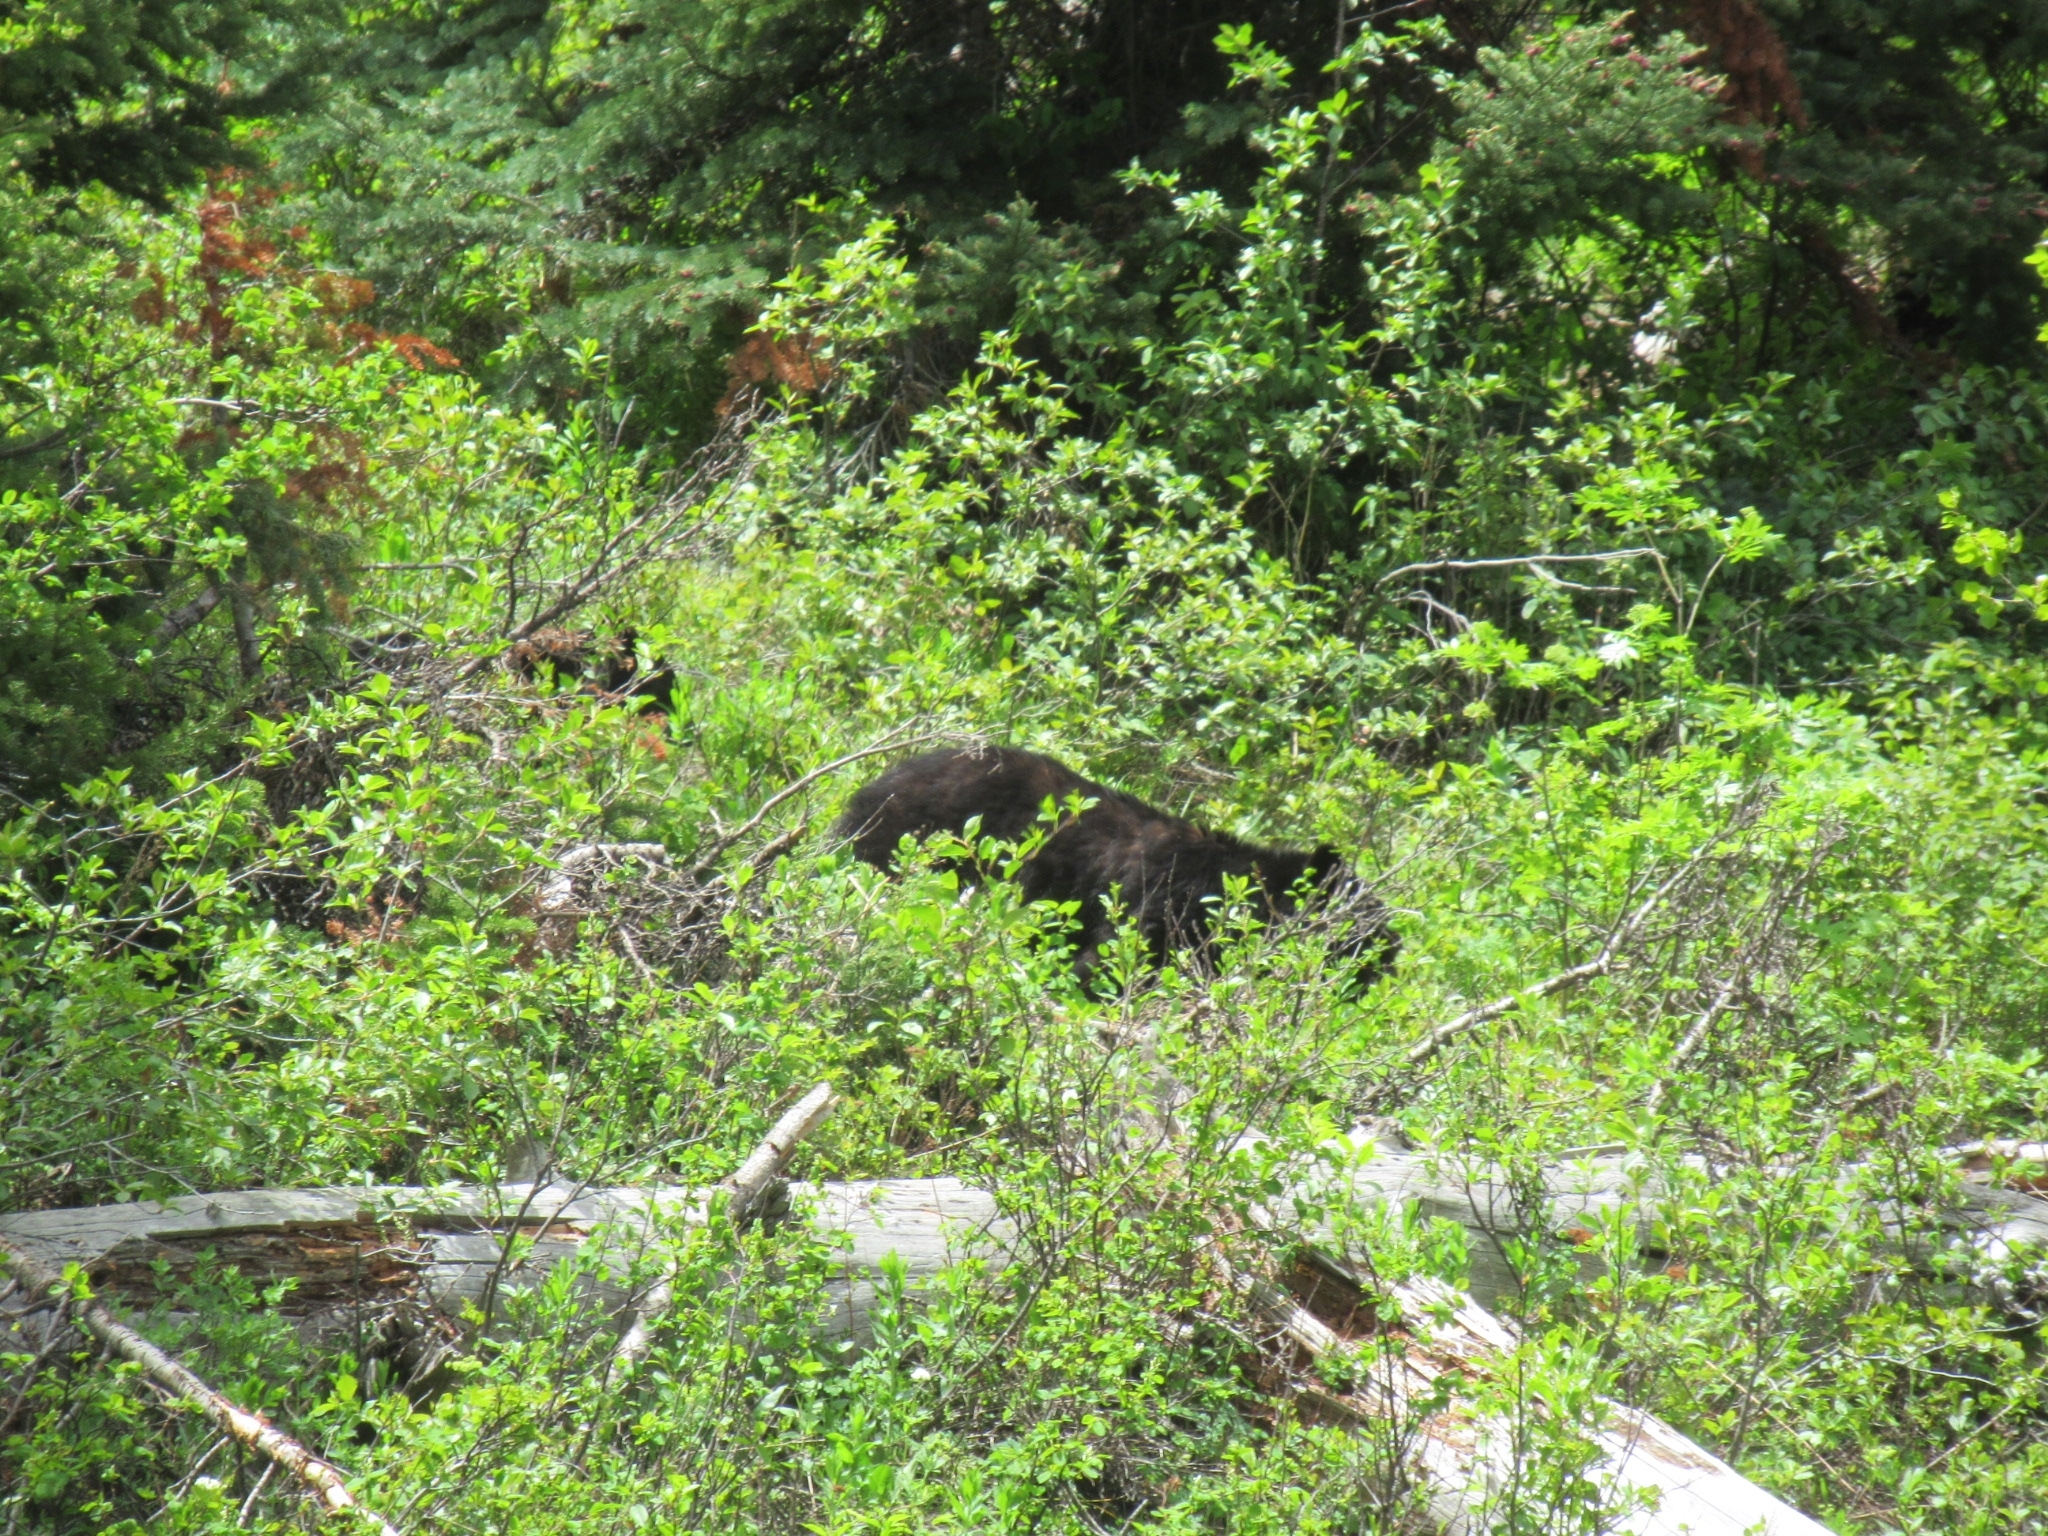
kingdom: Animalia
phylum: Chordata
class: Mammalia
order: Carnivora
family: Ursidae
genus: Ursus
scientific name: Ursus americanus
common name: American black bear
